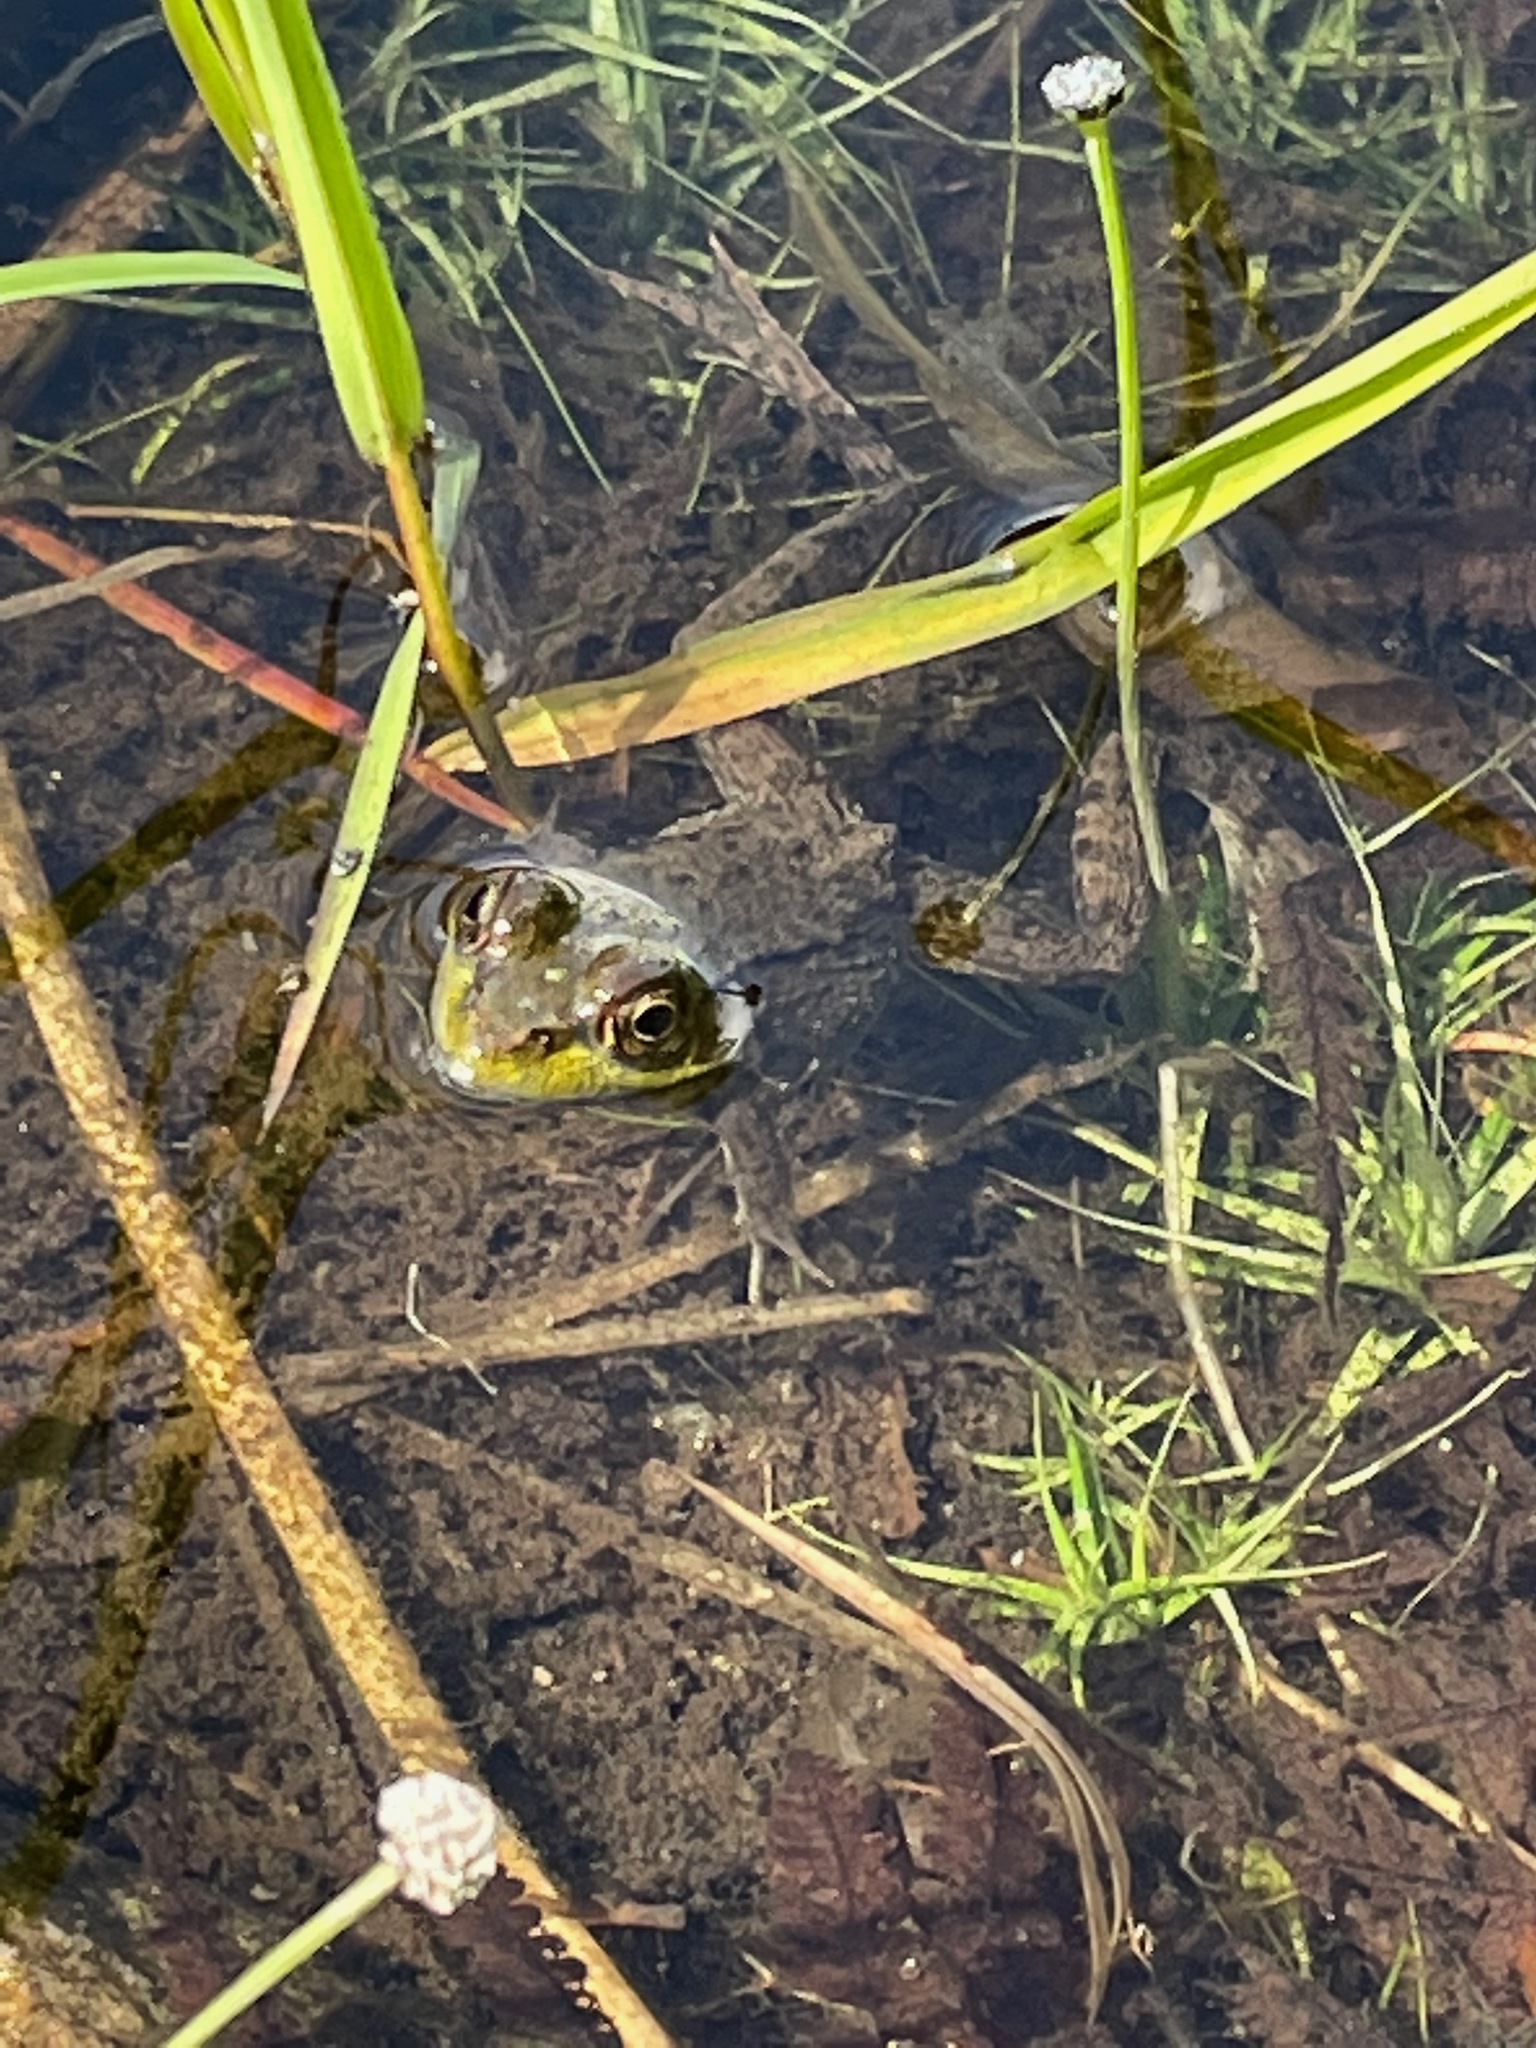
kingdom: Animalia
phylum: Chordata
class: Amphibia
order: Anura
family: Ranidae
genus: Lithobates
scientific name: Lithobates clamitans
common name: Green frog
